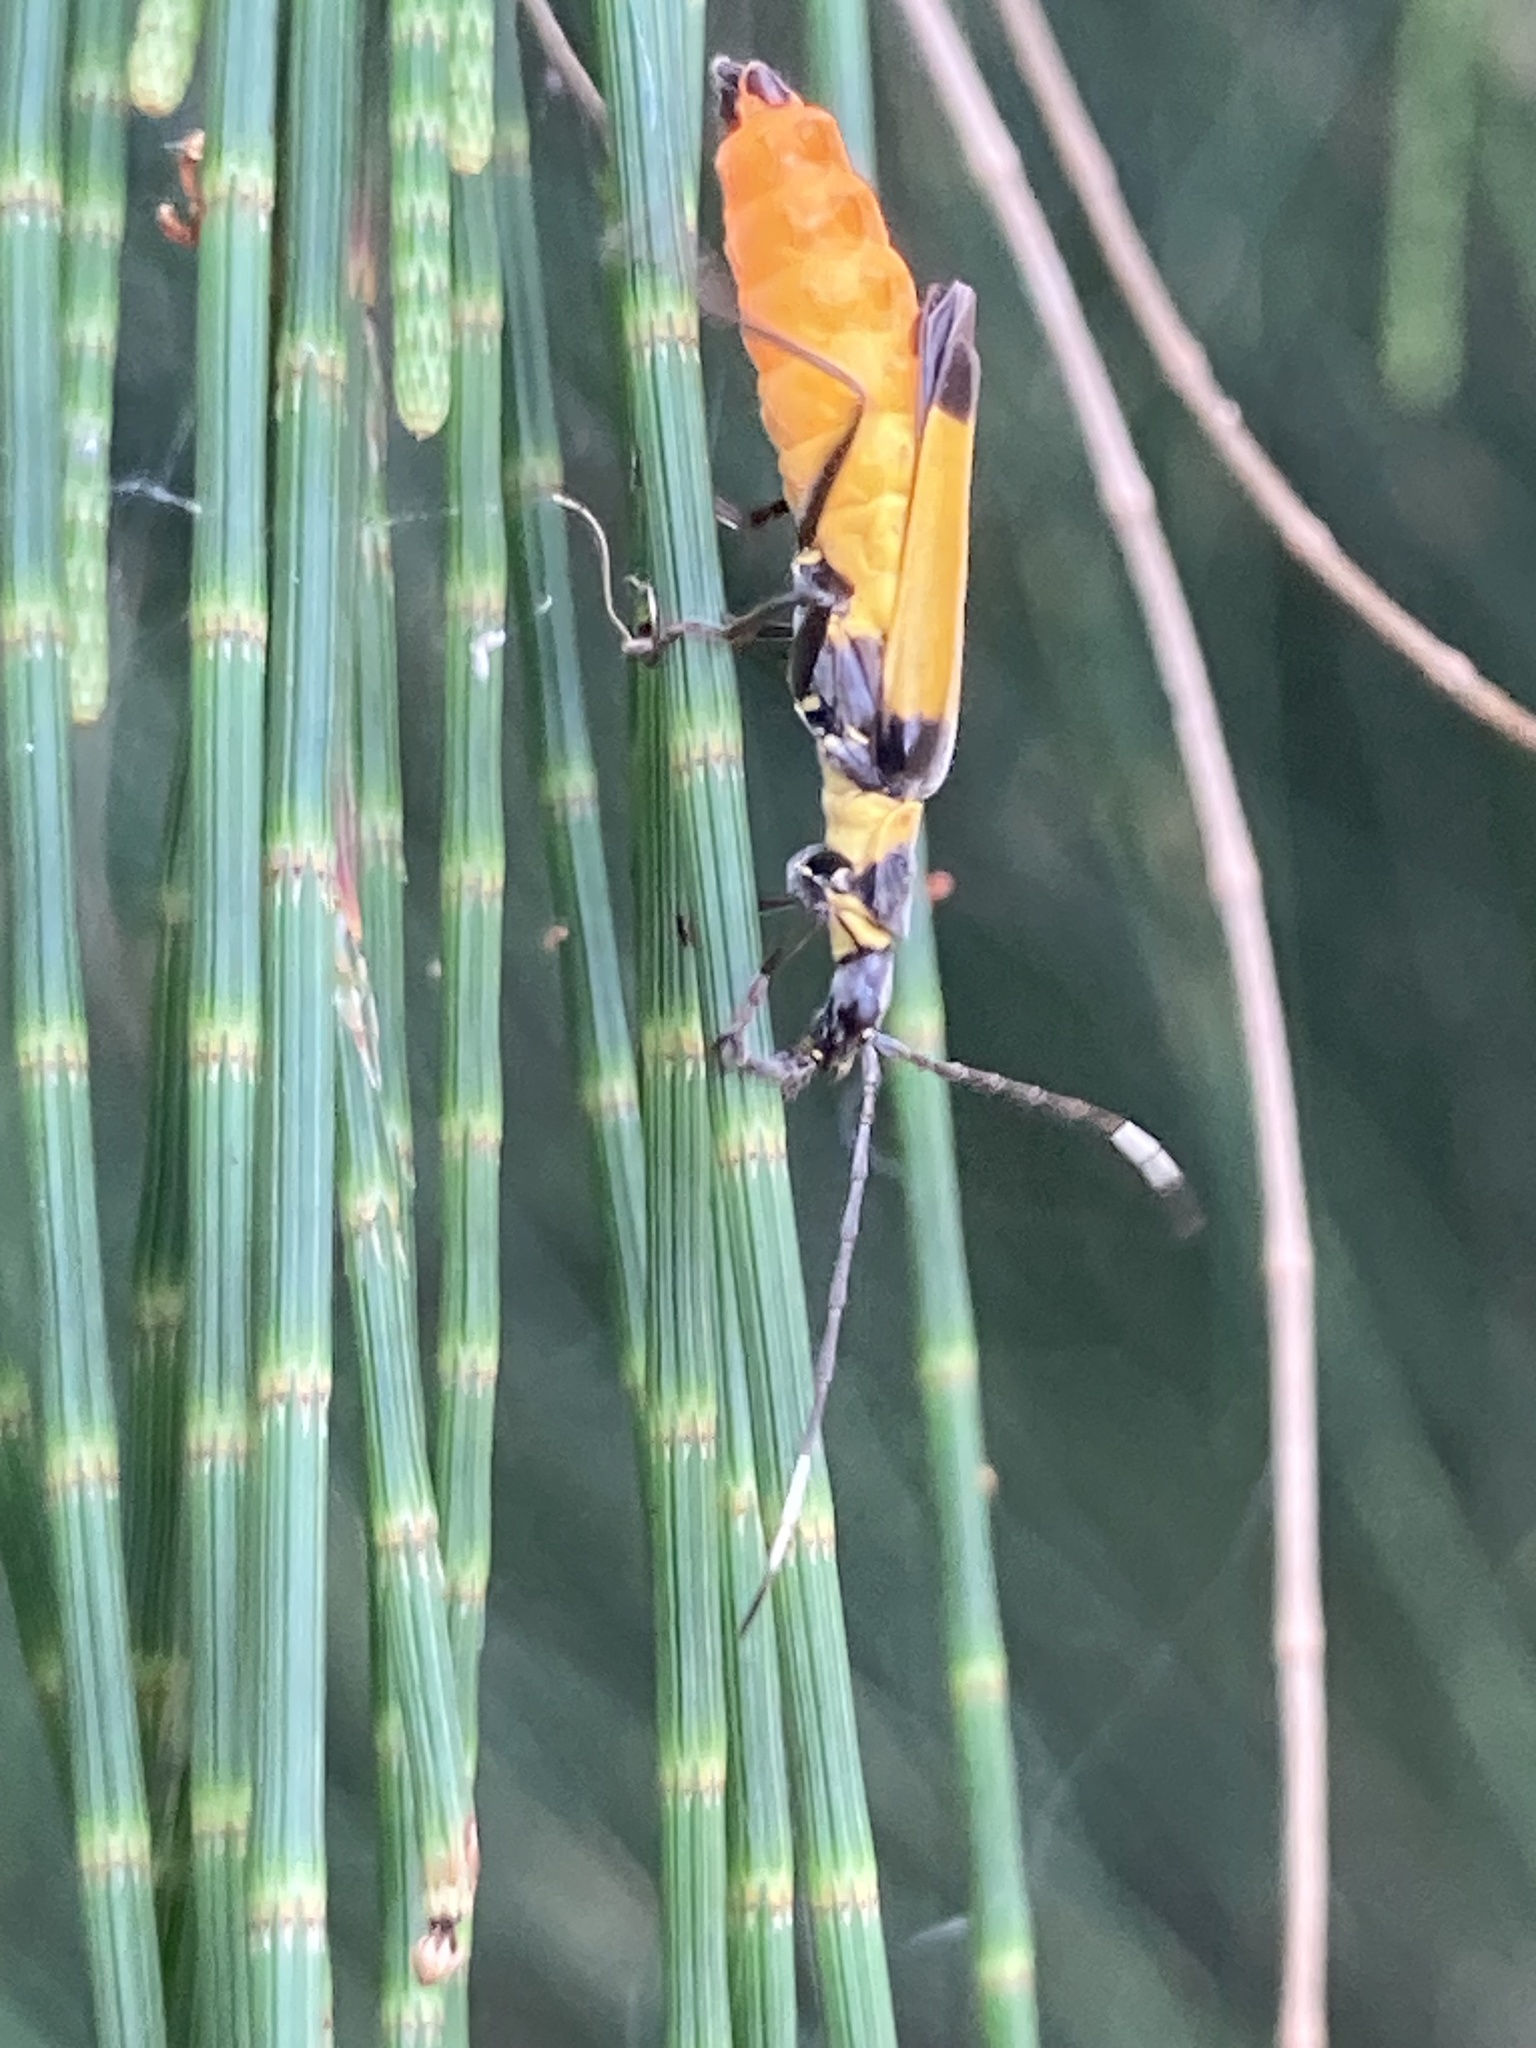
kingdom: Animalia
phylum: Arthropoda
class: Insecta
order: Coleoptera
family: Cantharidae
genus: Chauliognathus
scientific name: Chauliognathus
